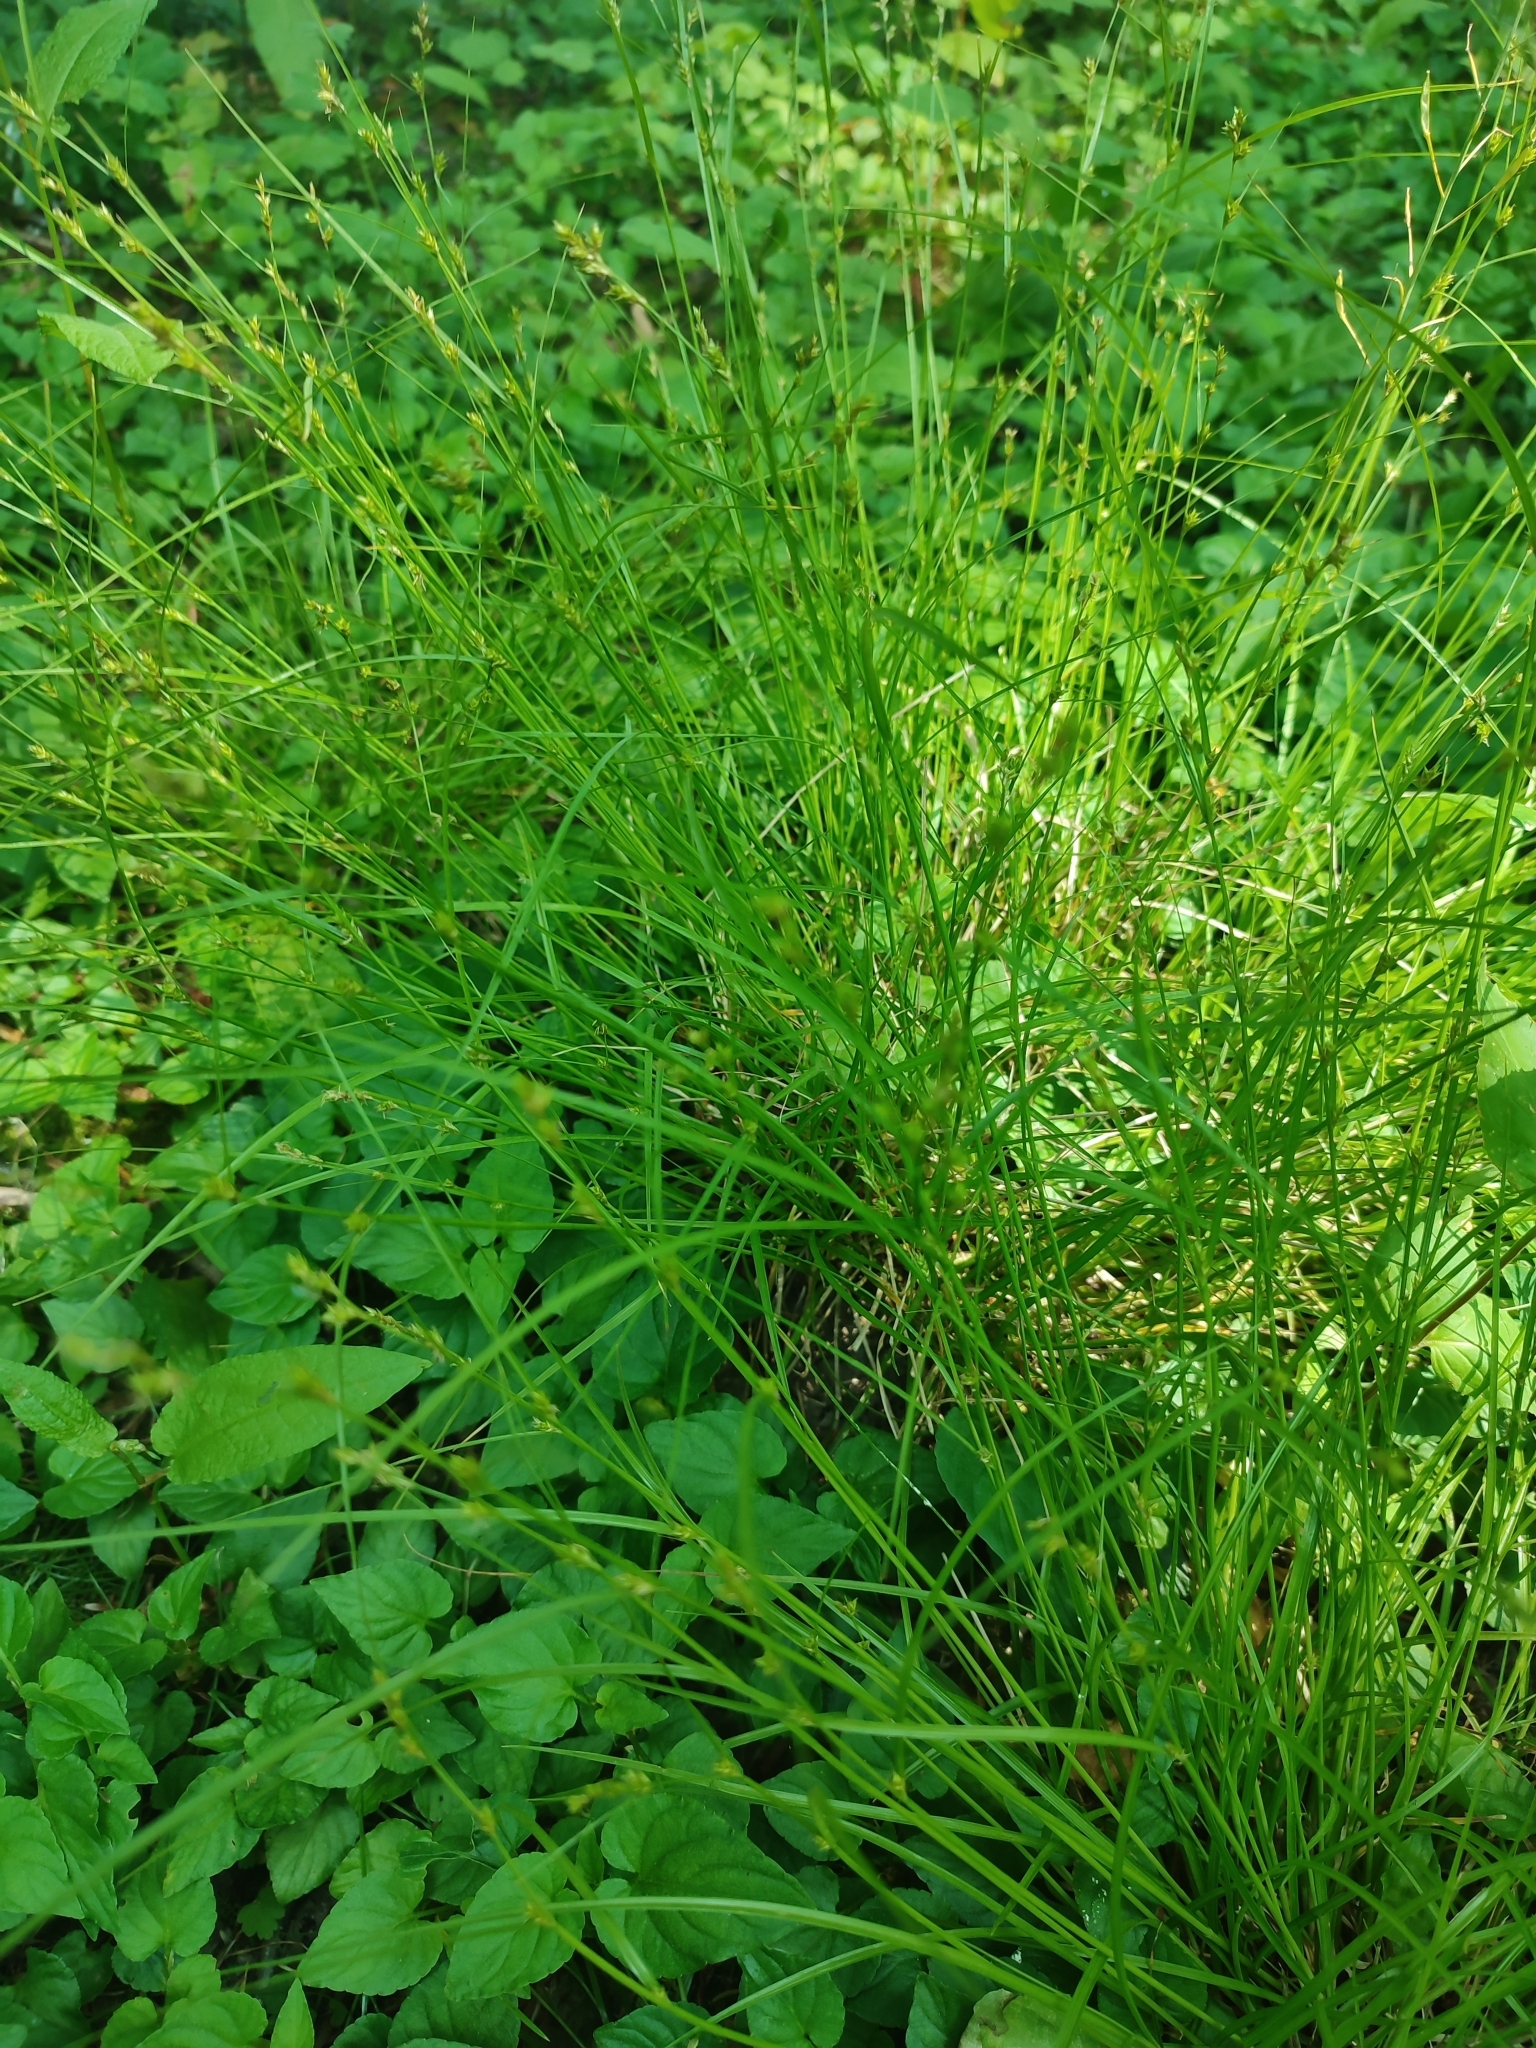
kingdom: Plantae
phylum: Tracheophyta
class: Liliopsida
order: Poales
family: Cyperaceae
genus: Carex
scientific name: Carex remota
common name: Remote sedge
